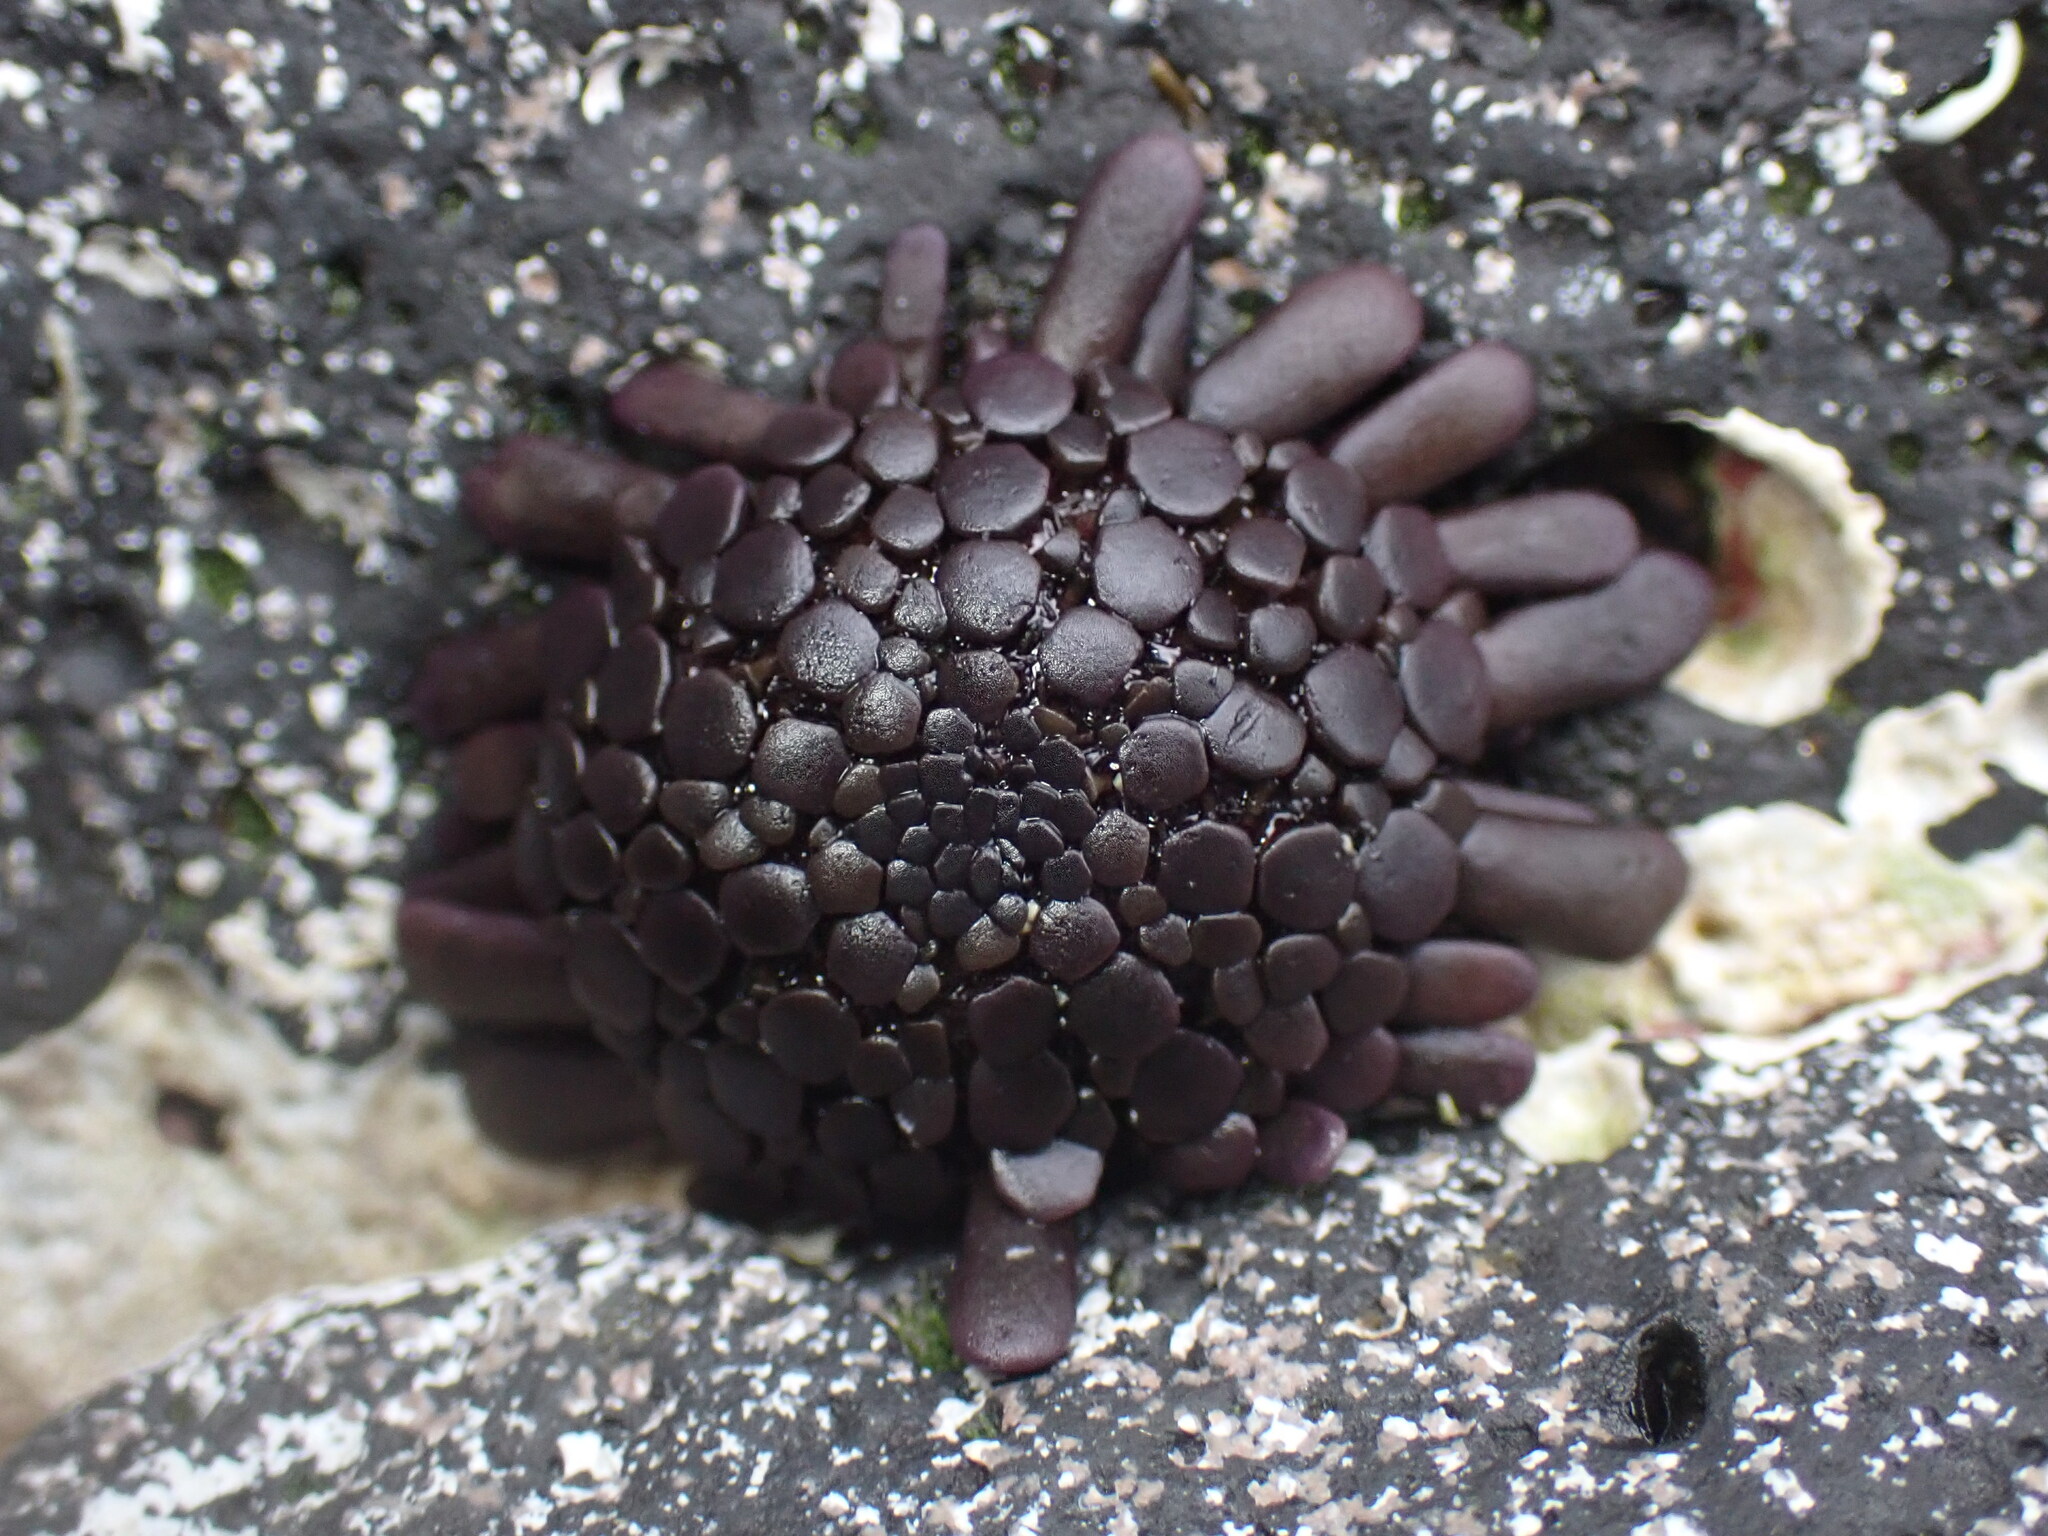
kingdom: Animalia
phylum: Echinodermata
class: Echinoidea
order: Camarodonta
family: Echinometridae
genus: Colobocentrotus
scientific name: Colobocentrotus atratus
